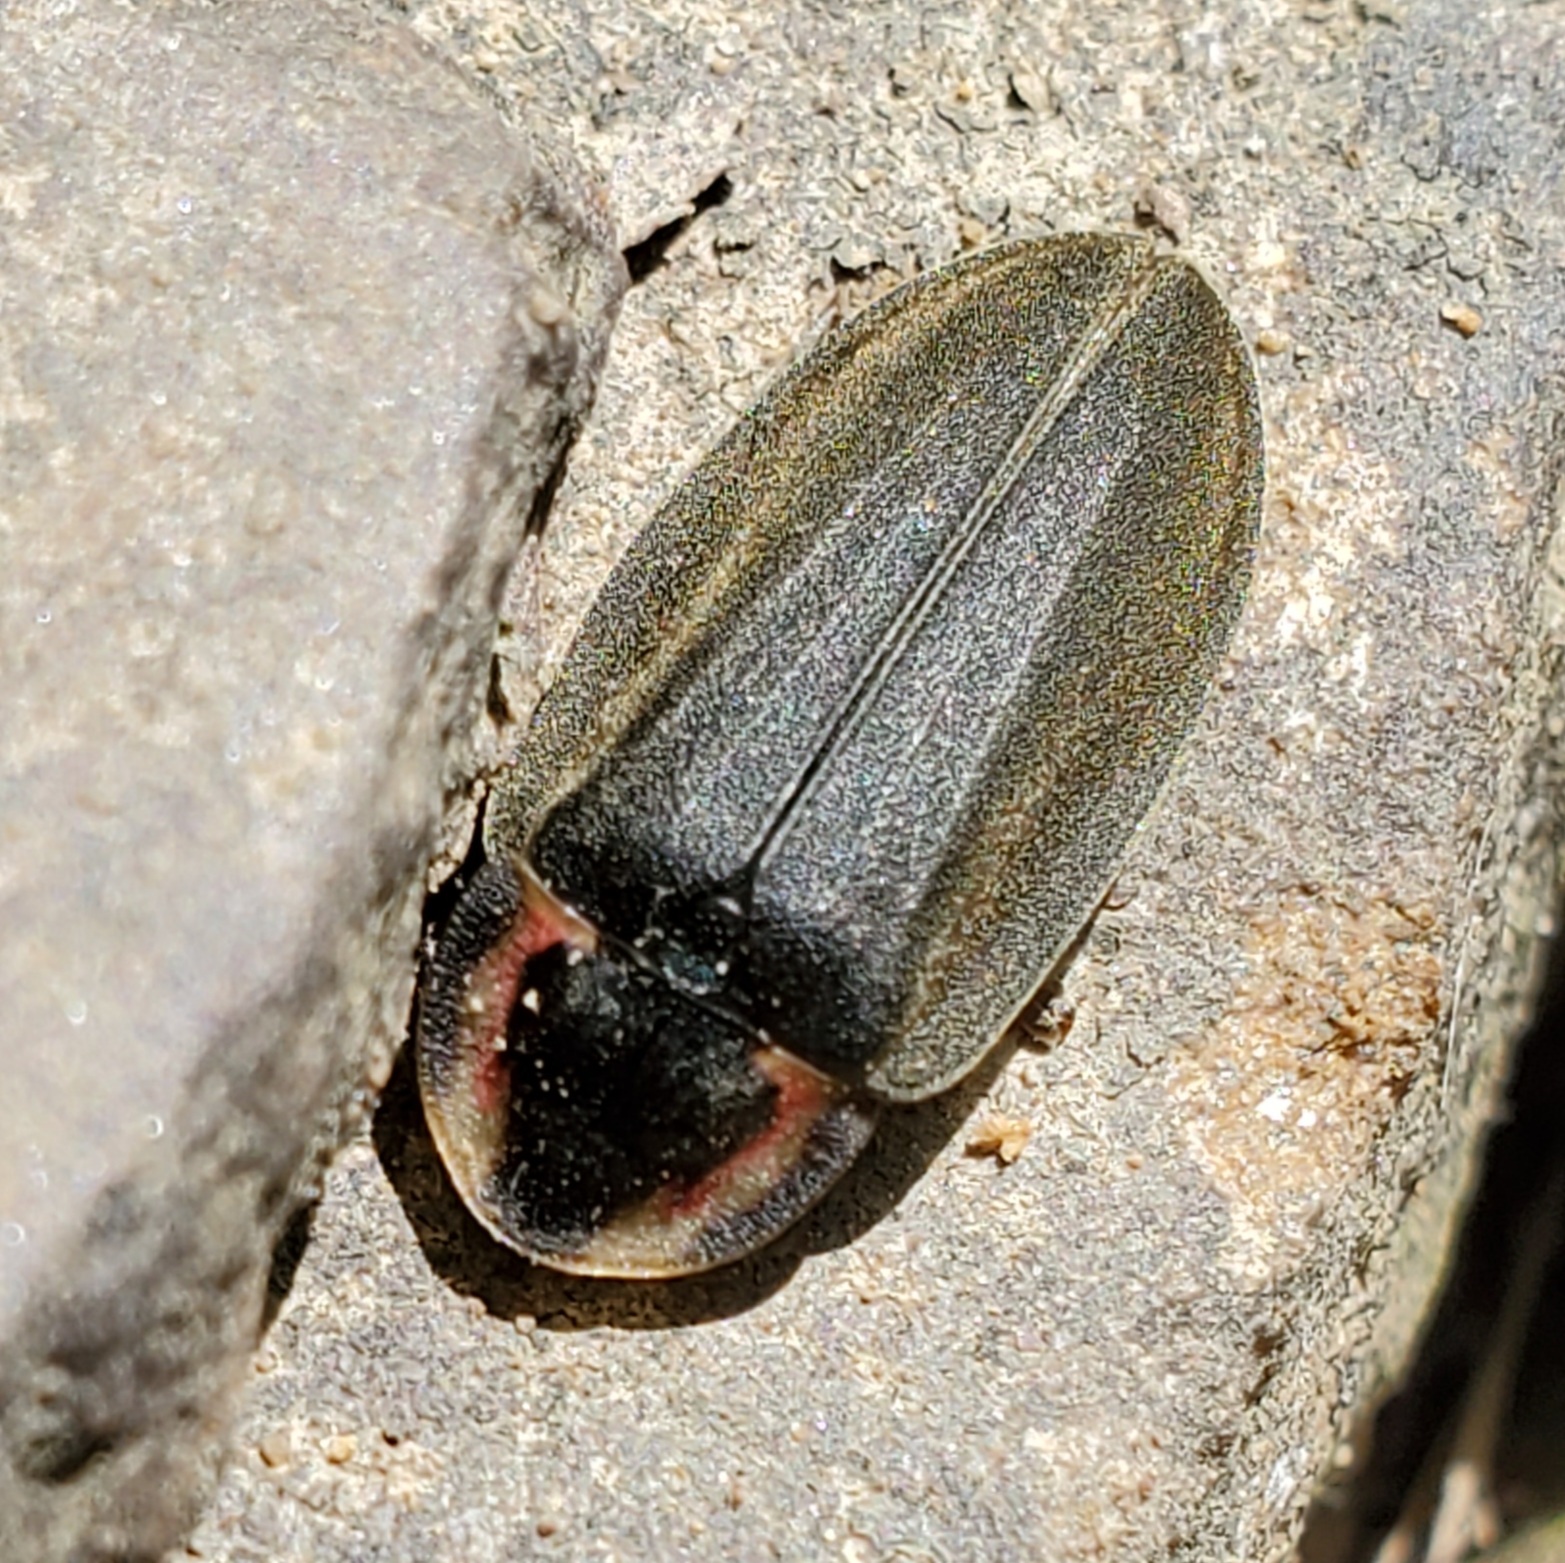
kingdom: Animalia
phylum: Arthropoda
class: Insecta
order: Coleoptera
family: Lampyridae
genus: Photinus
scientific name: Photinus corrusca
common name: Winter firefly
